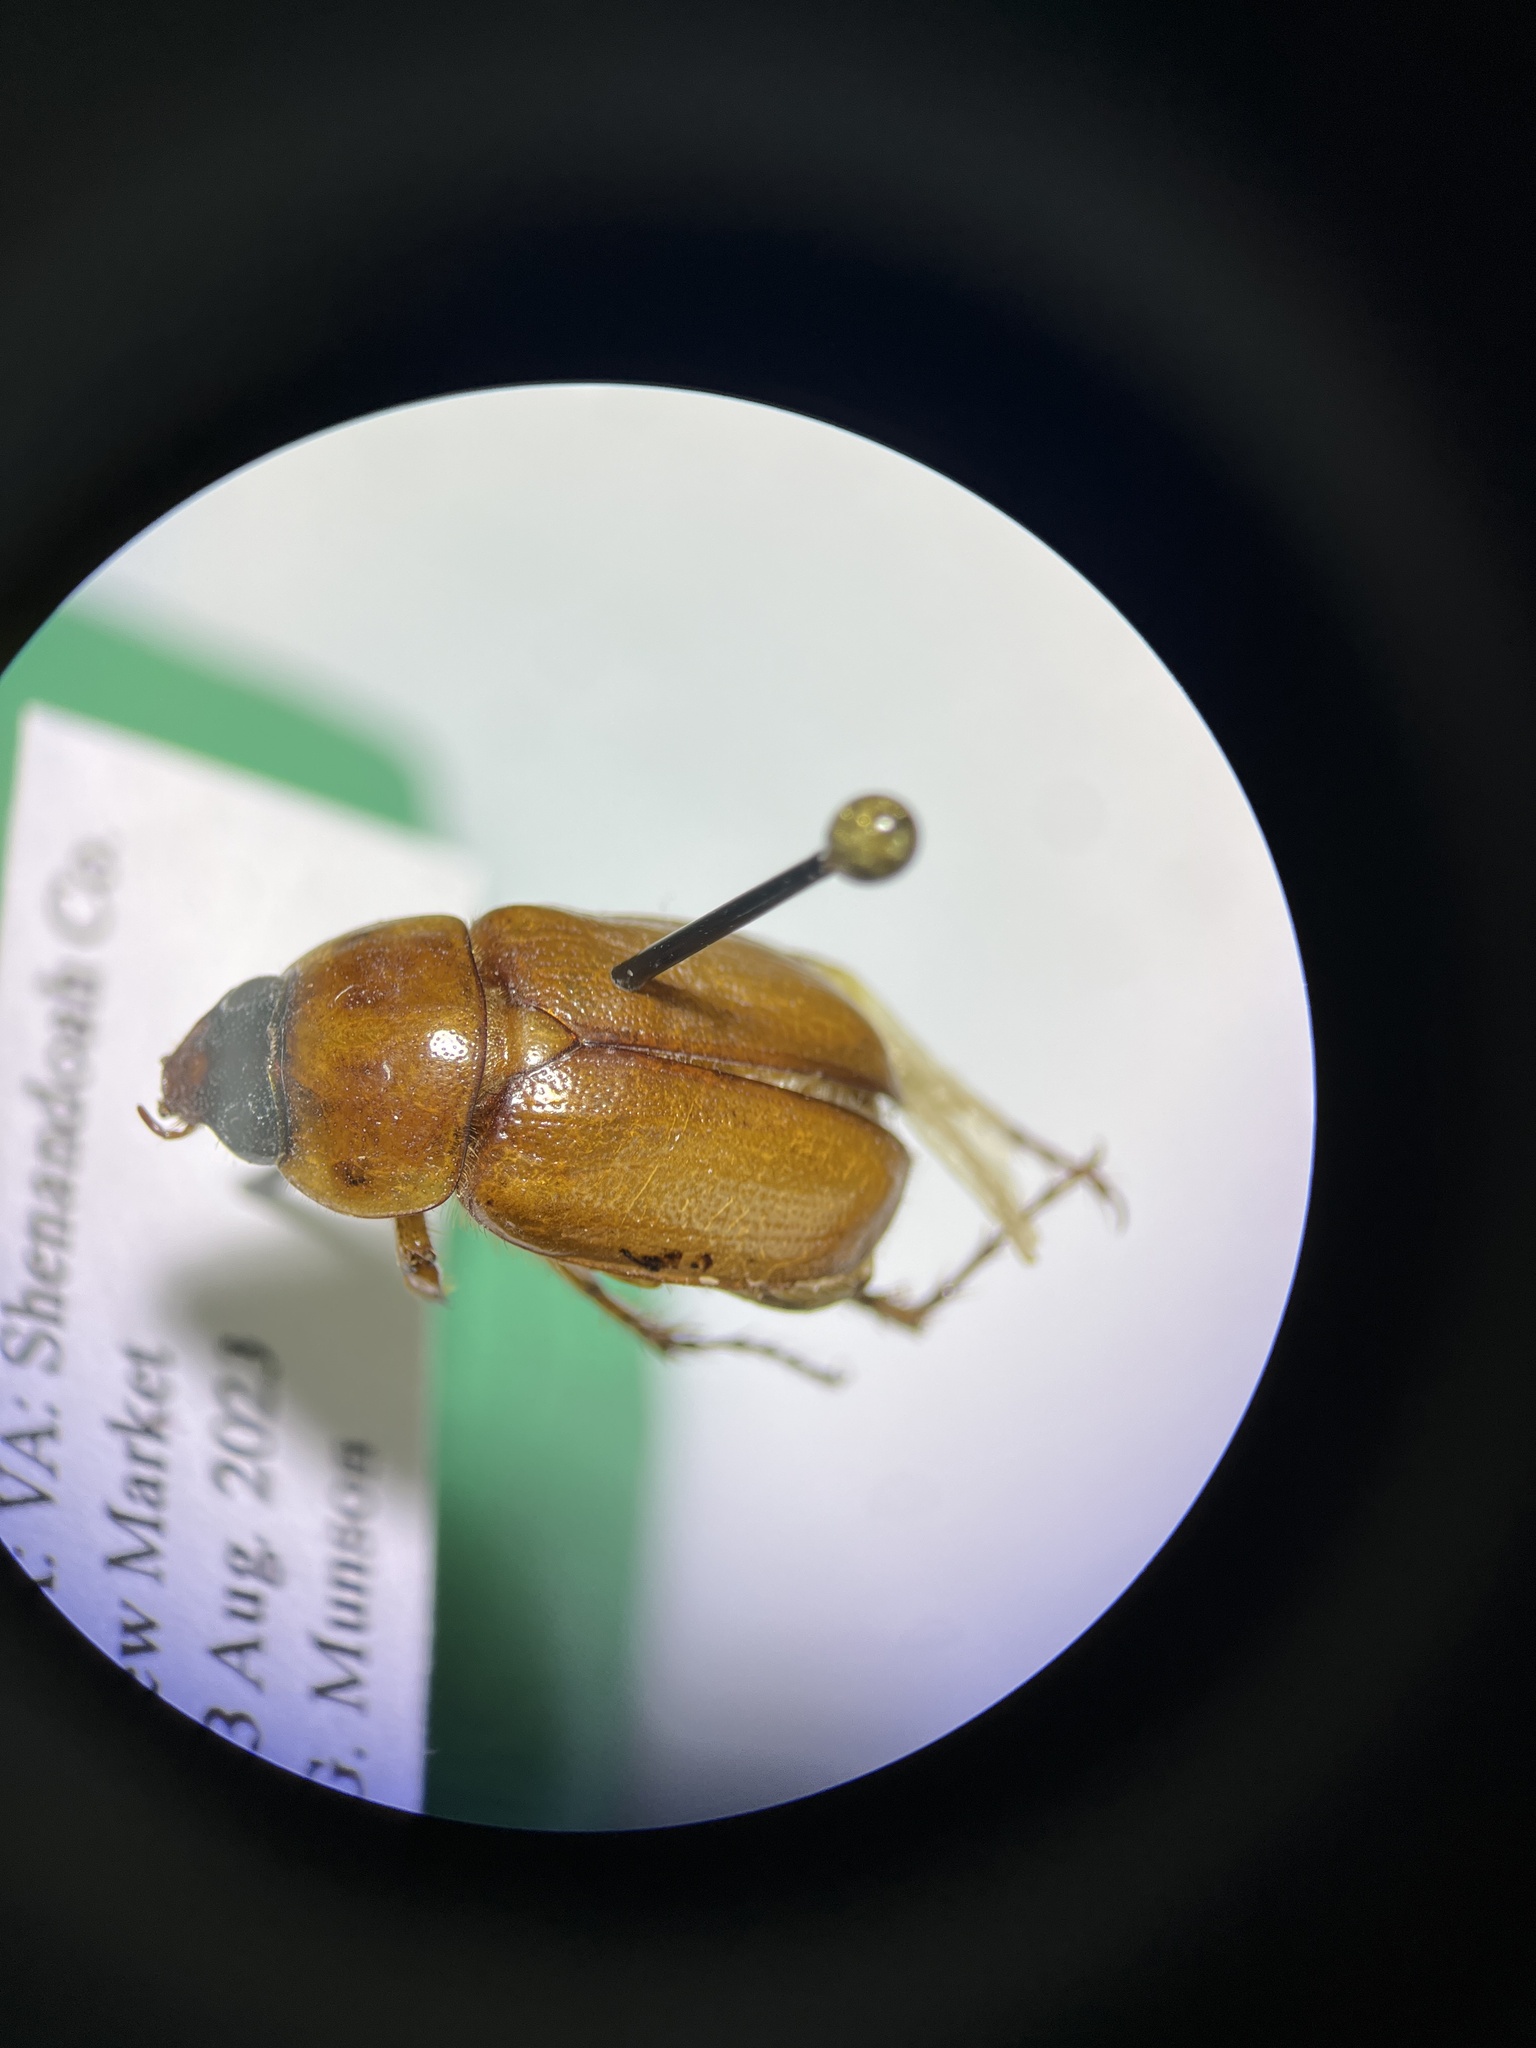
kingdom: Animalia
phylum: Arthropoda
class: Insecta
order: Coleoptera
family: Scarabaeidae
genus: Cyclocephala
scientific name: Cyclocephala lurida
